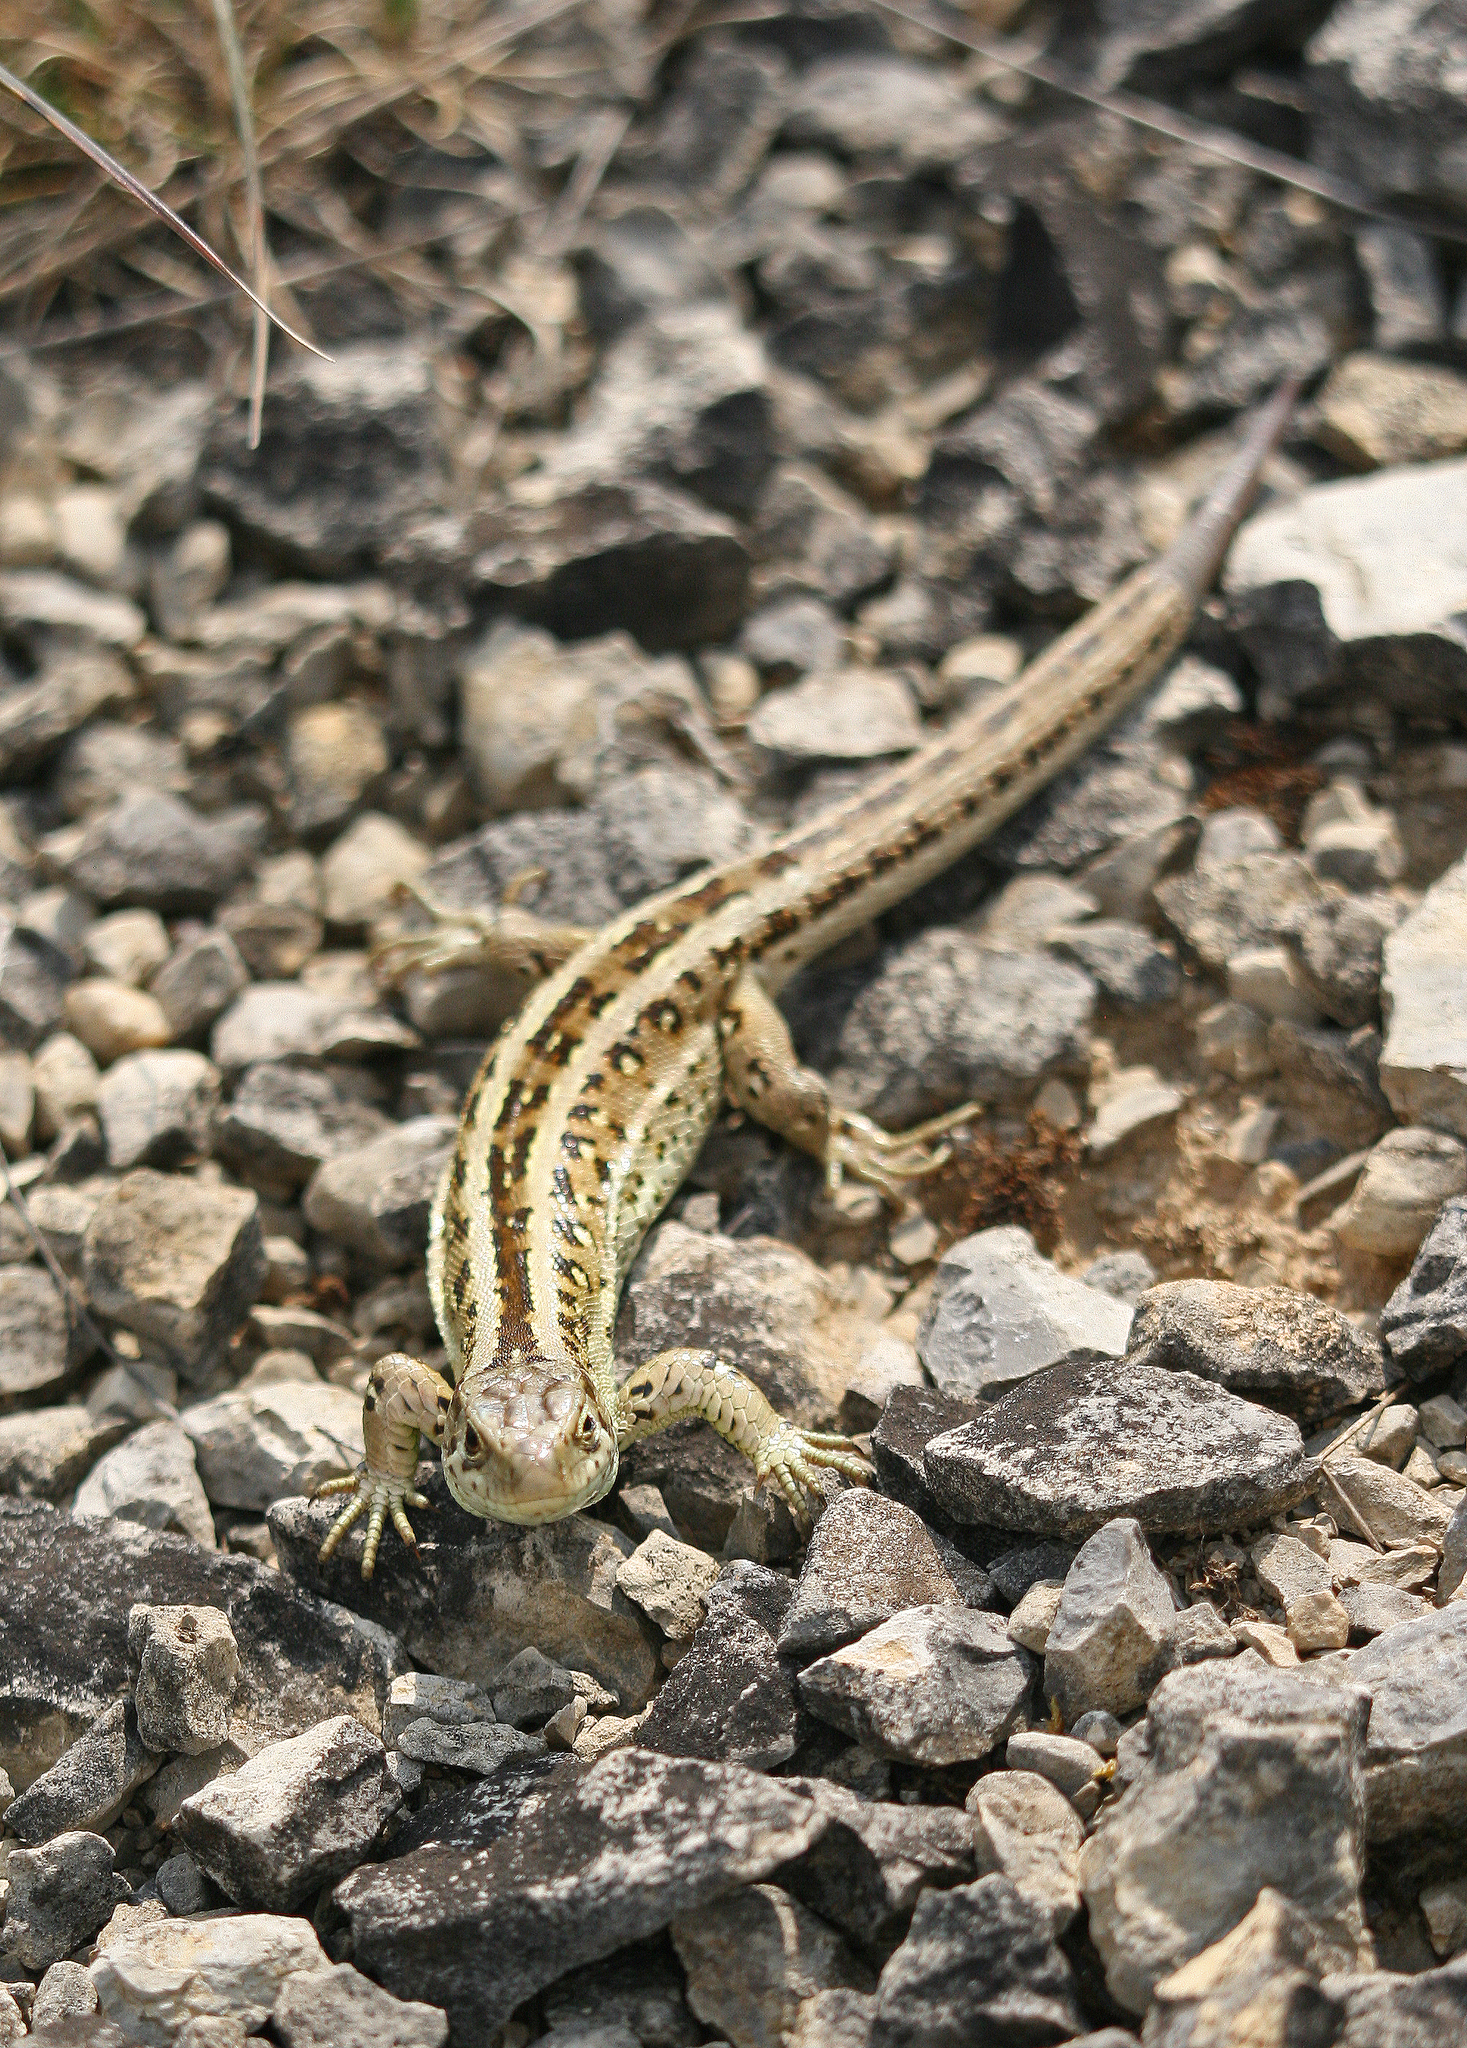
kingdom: Animalia
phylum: Chordata
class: Squamata
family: Lacertidae
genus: Lacerta
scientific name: Lacerta agilis
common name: Sand lizard
